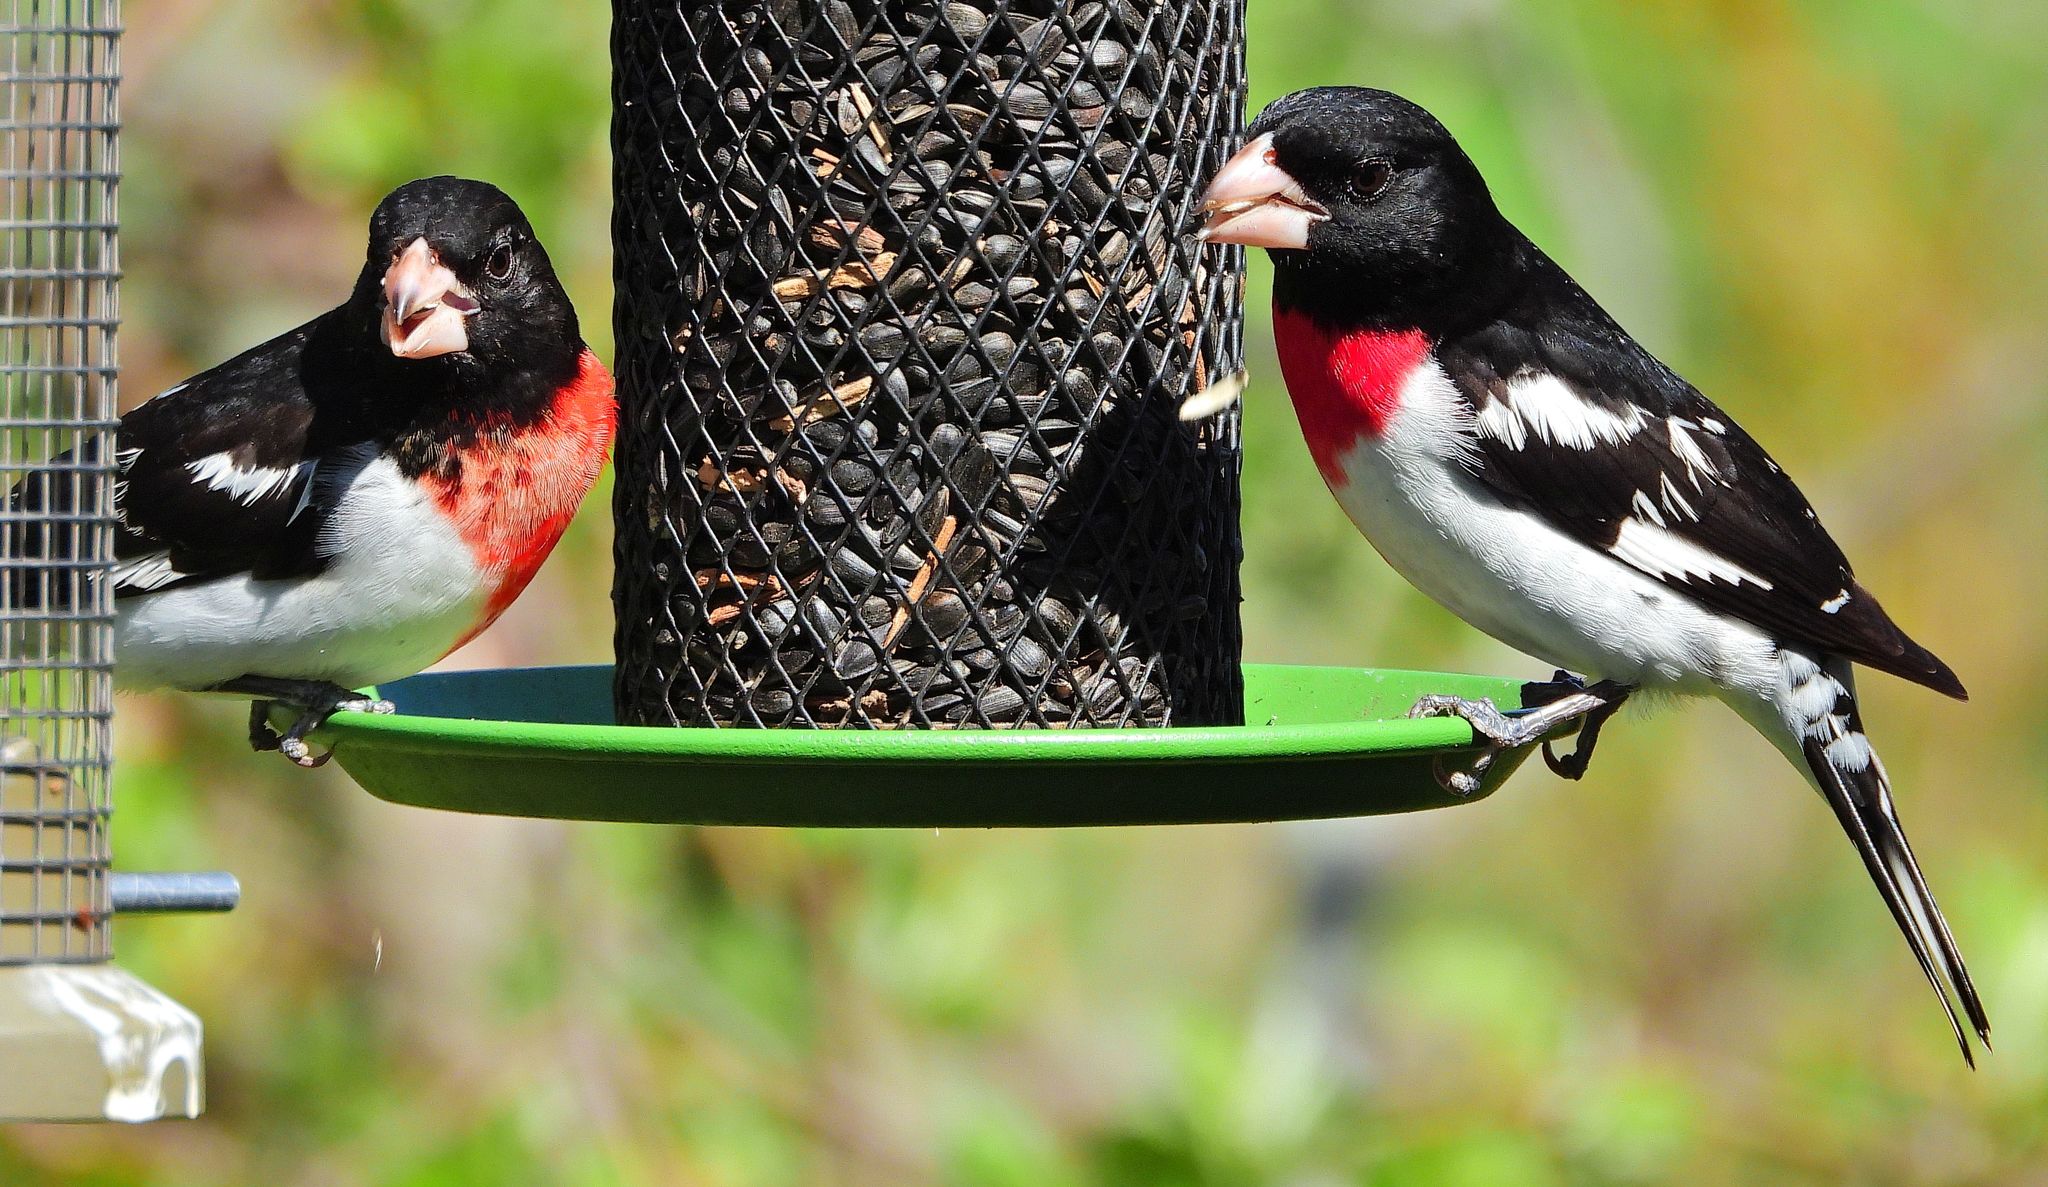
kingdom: Animalia
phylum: Chordata
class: Aves
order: Passeriformes
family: Cardinalidae
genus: Pheucticus
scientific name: Pheucticus ludovicianus
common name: Rose-breasted grosbeak
